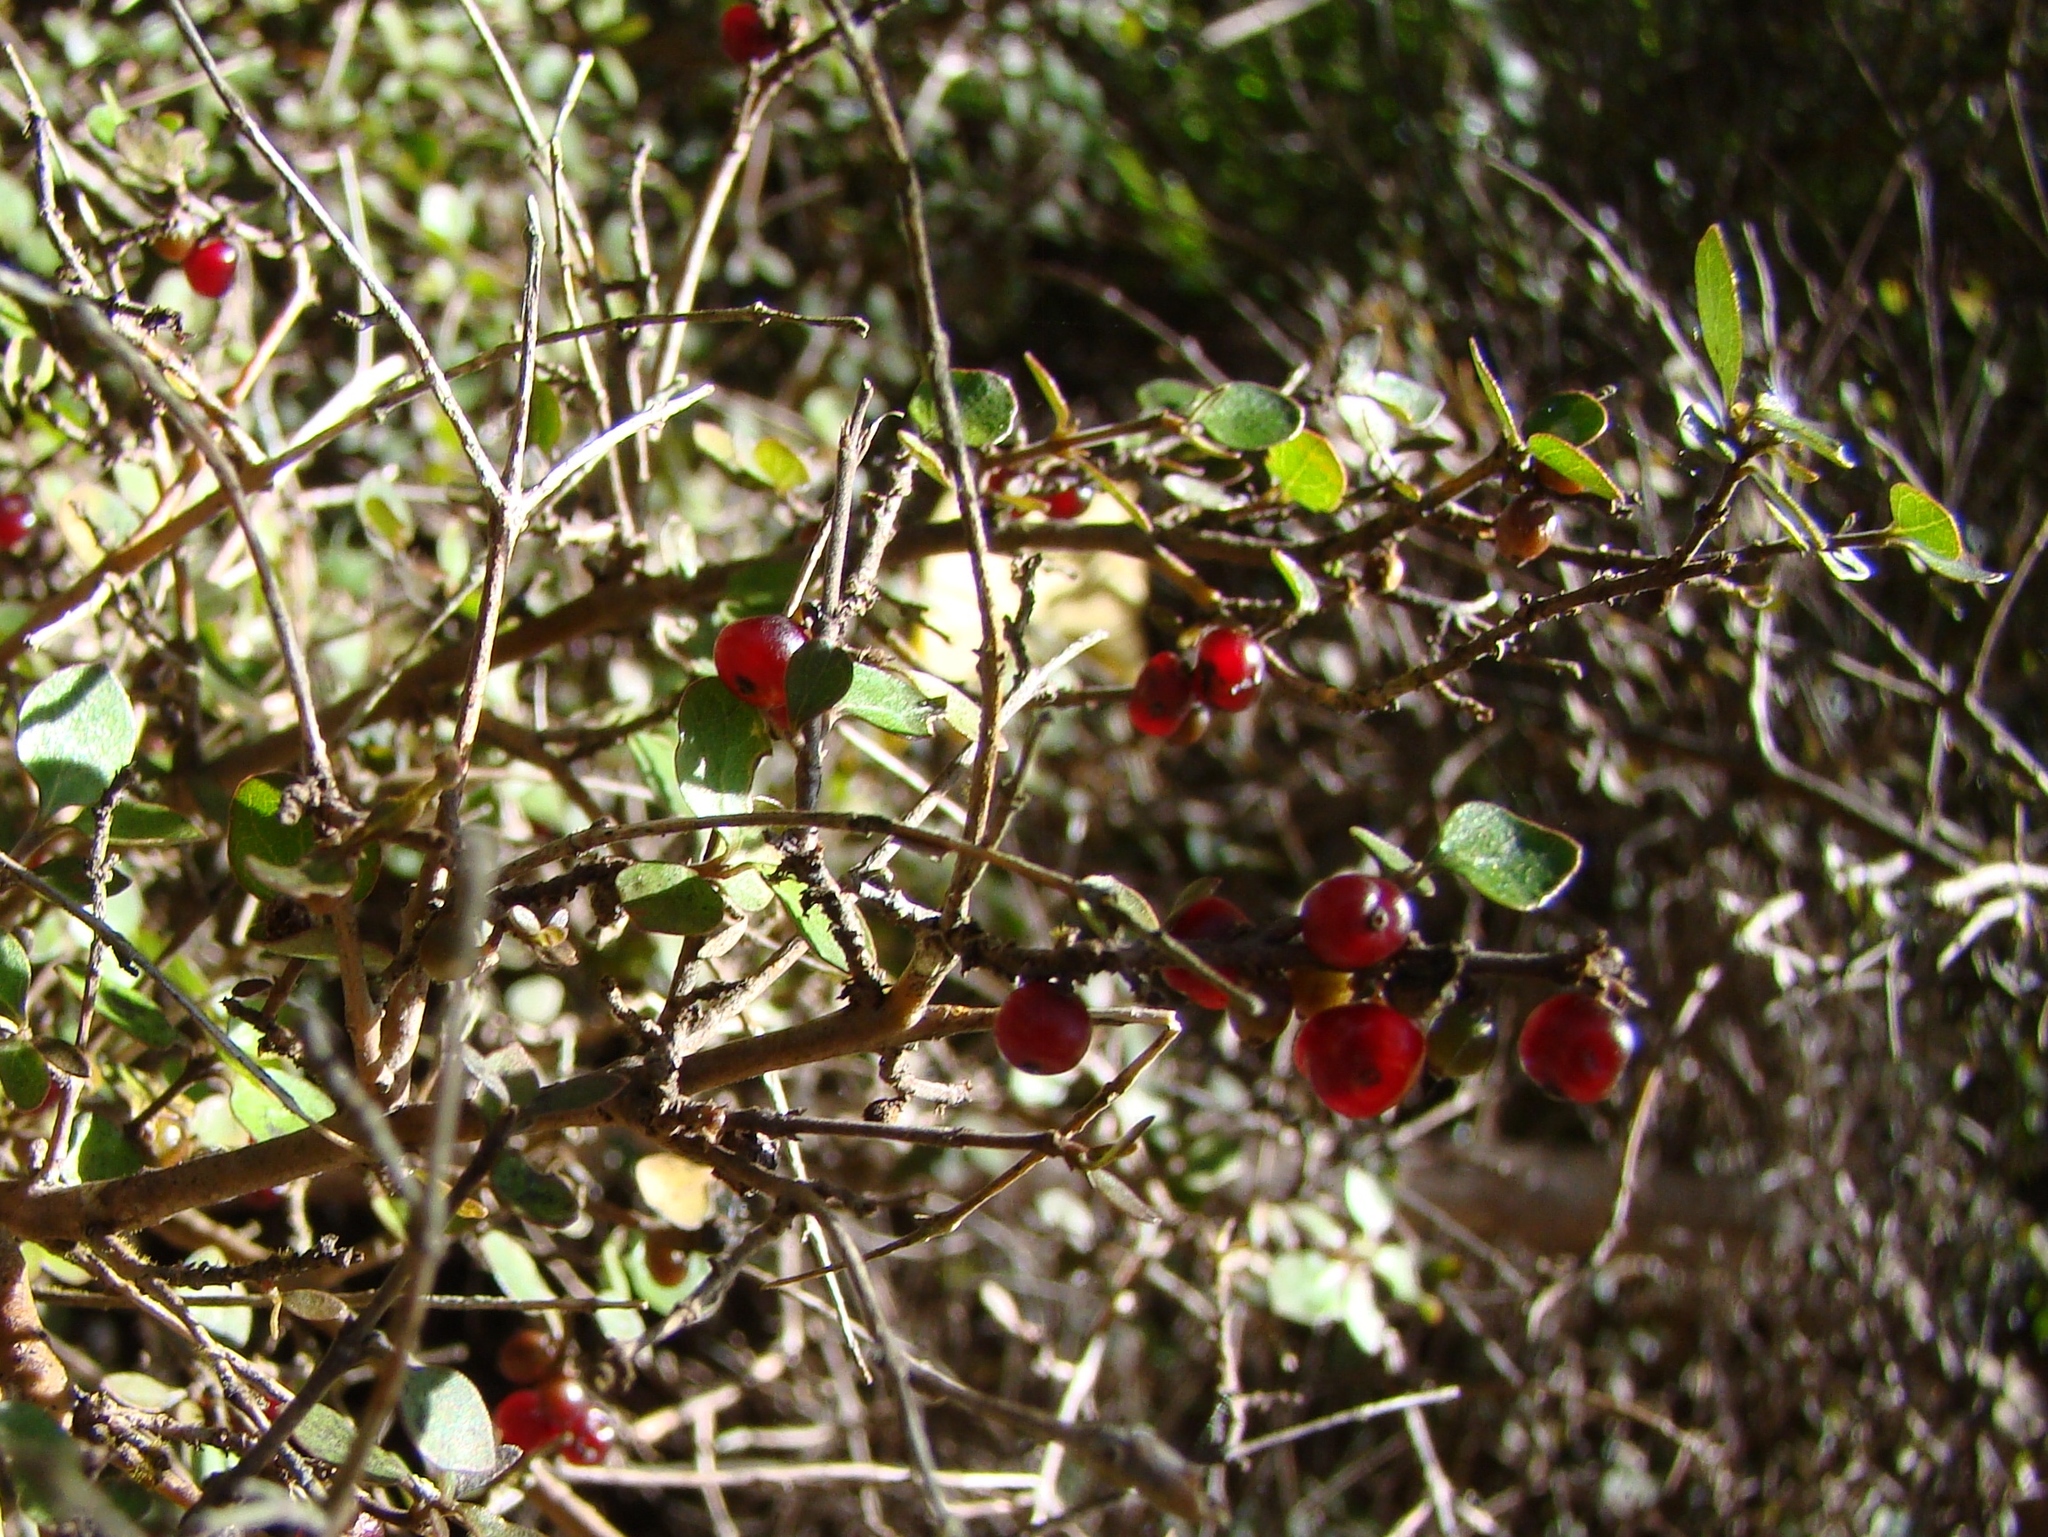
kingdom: Plantae
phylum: Tracheophyta
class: Magnoliopsida
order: Gentianales
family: Rubiaceae
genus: Coprosma
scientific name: Coprosma rhamnoides
